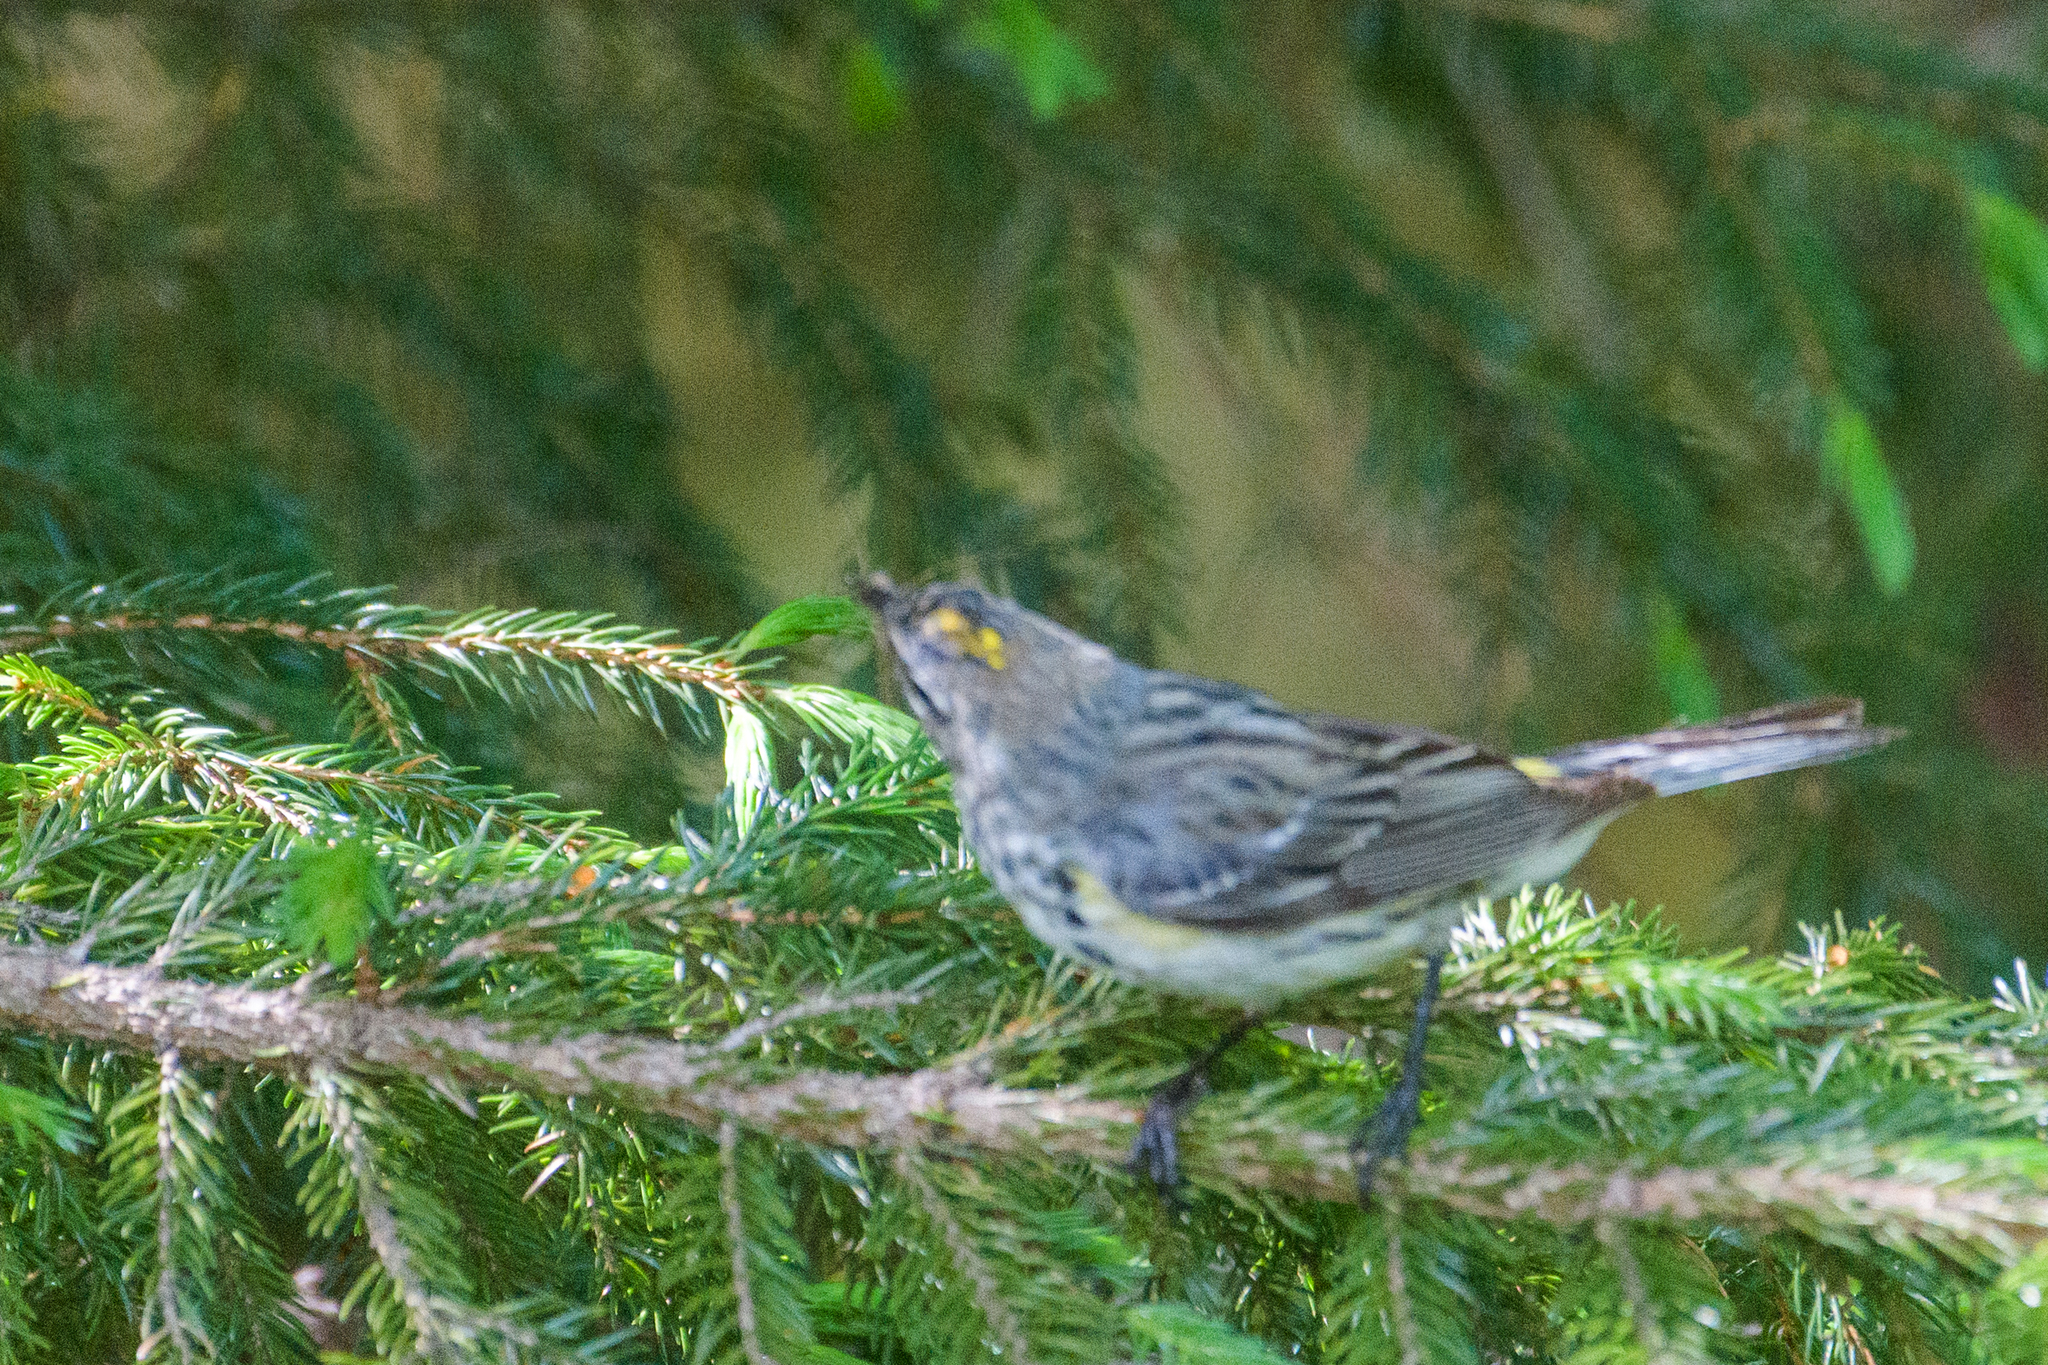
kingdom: Animalia
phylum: Chordata
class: Aves
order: Passeriformes
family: Parulidae
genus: Setophaga
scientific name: Setophaga coronata
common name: Myrtle warbler
